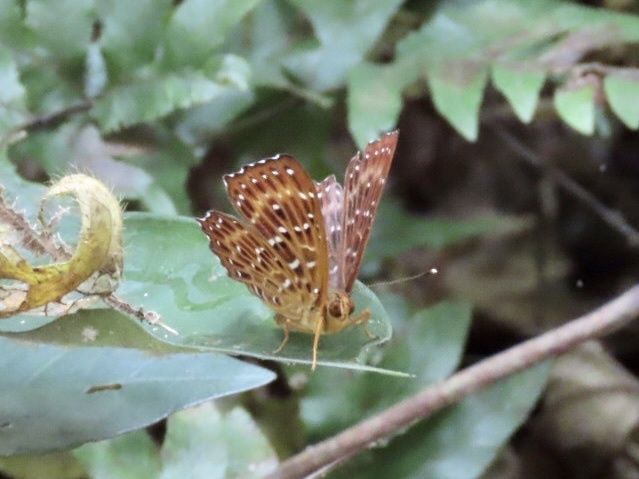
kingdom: Animalia
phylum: Arthropoda
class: Insecta
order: Lepidoptera
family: Riodinidae
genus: Zemeros
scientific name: Zemeros flegyas
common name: Punchinello
